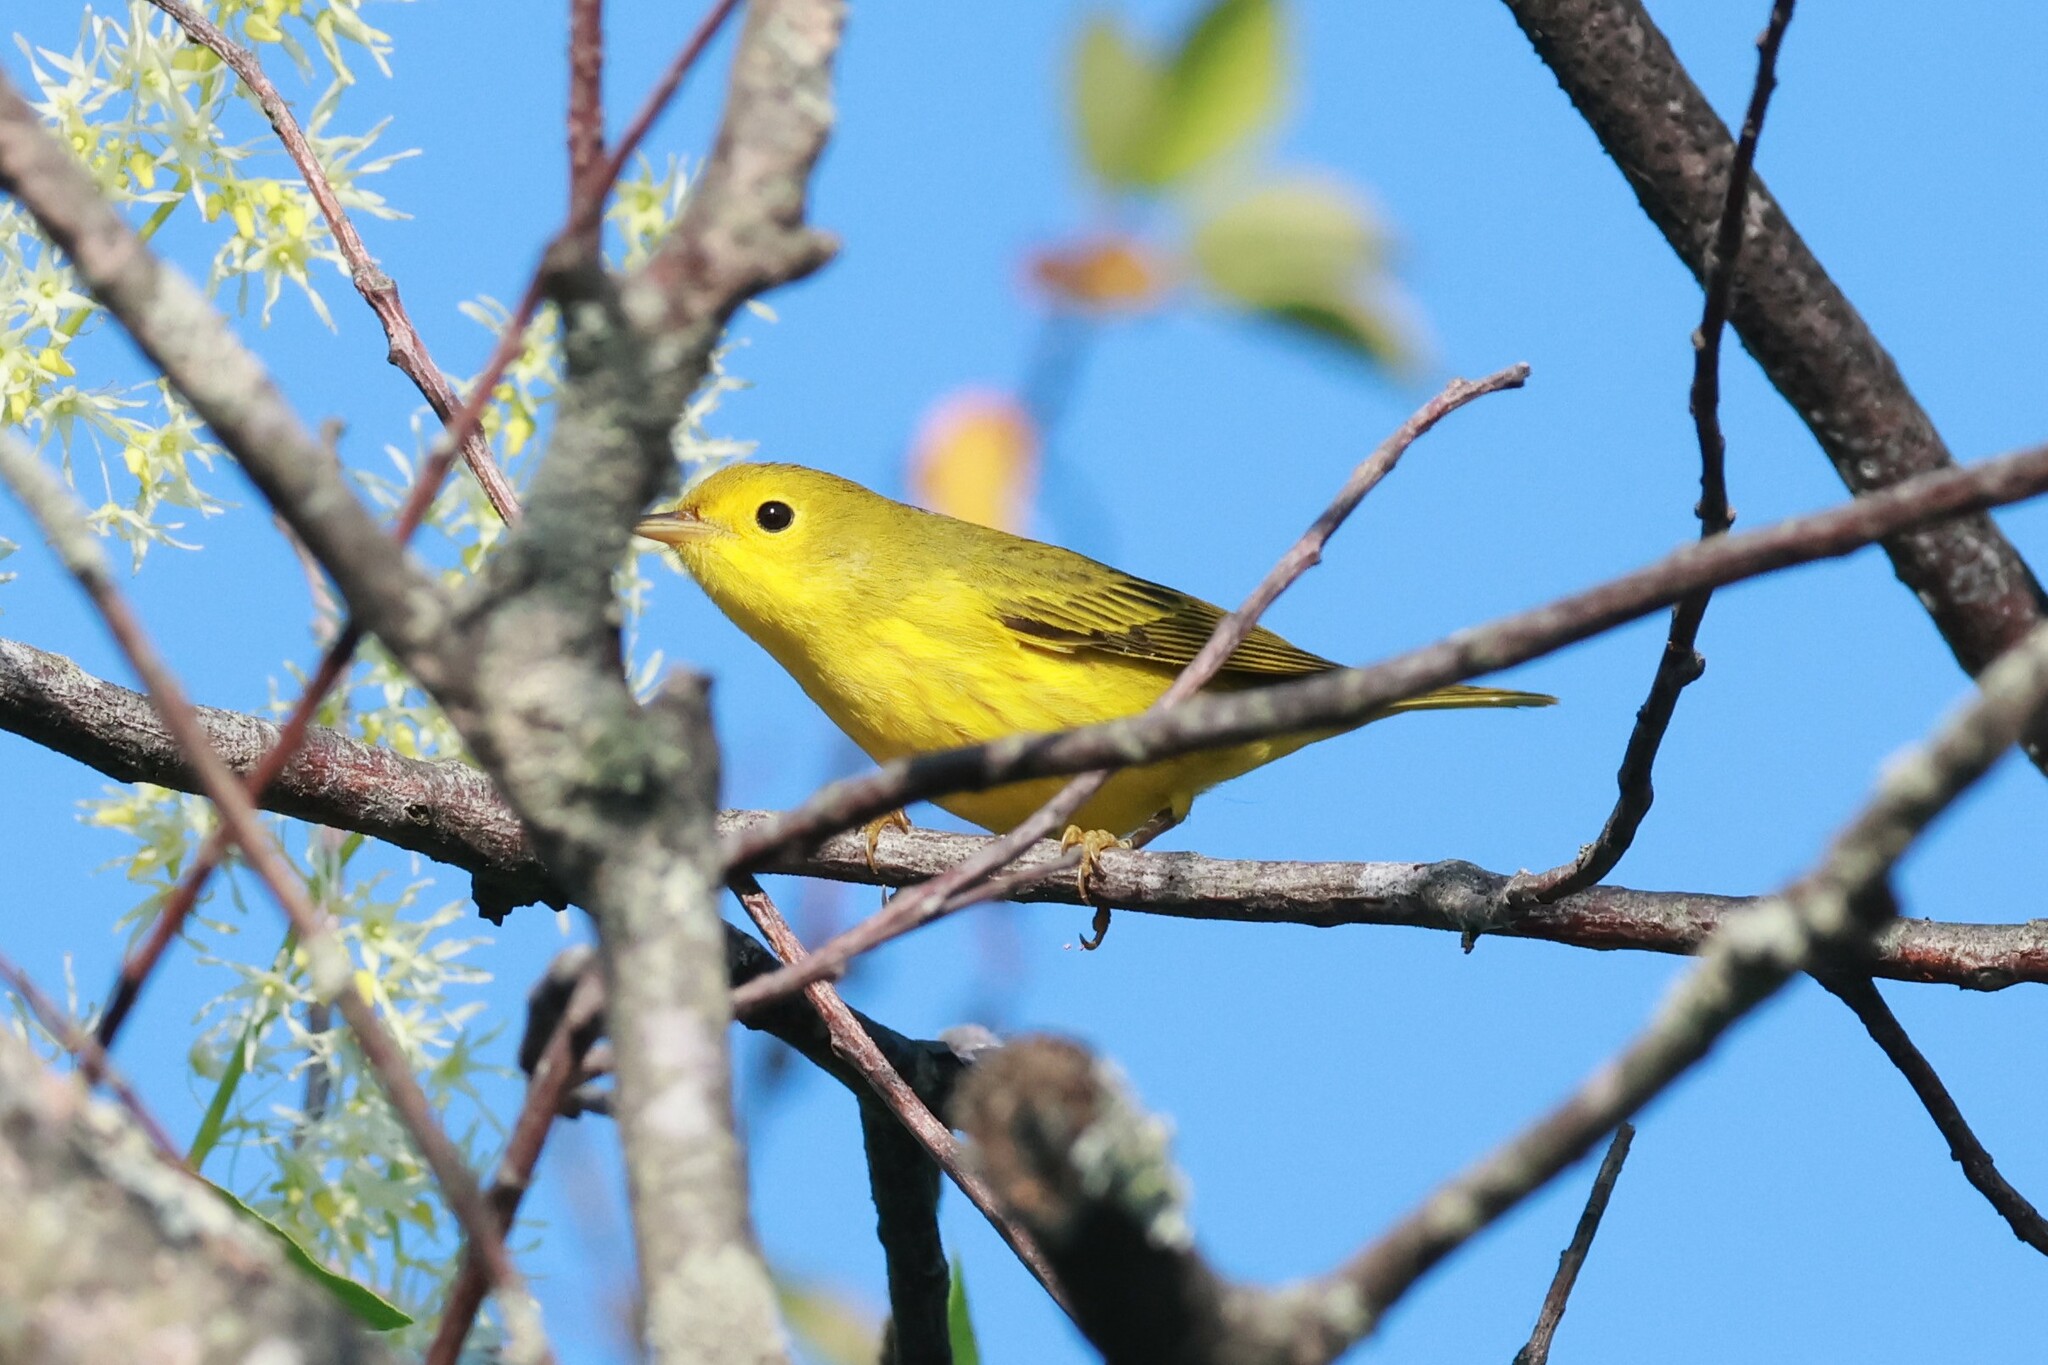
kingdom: Animalia
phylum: Chordata
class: Aves
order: Passeriformes
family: Parulidae
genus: Setophaga
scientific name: Setophaga petechia
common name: Yellow warbler
